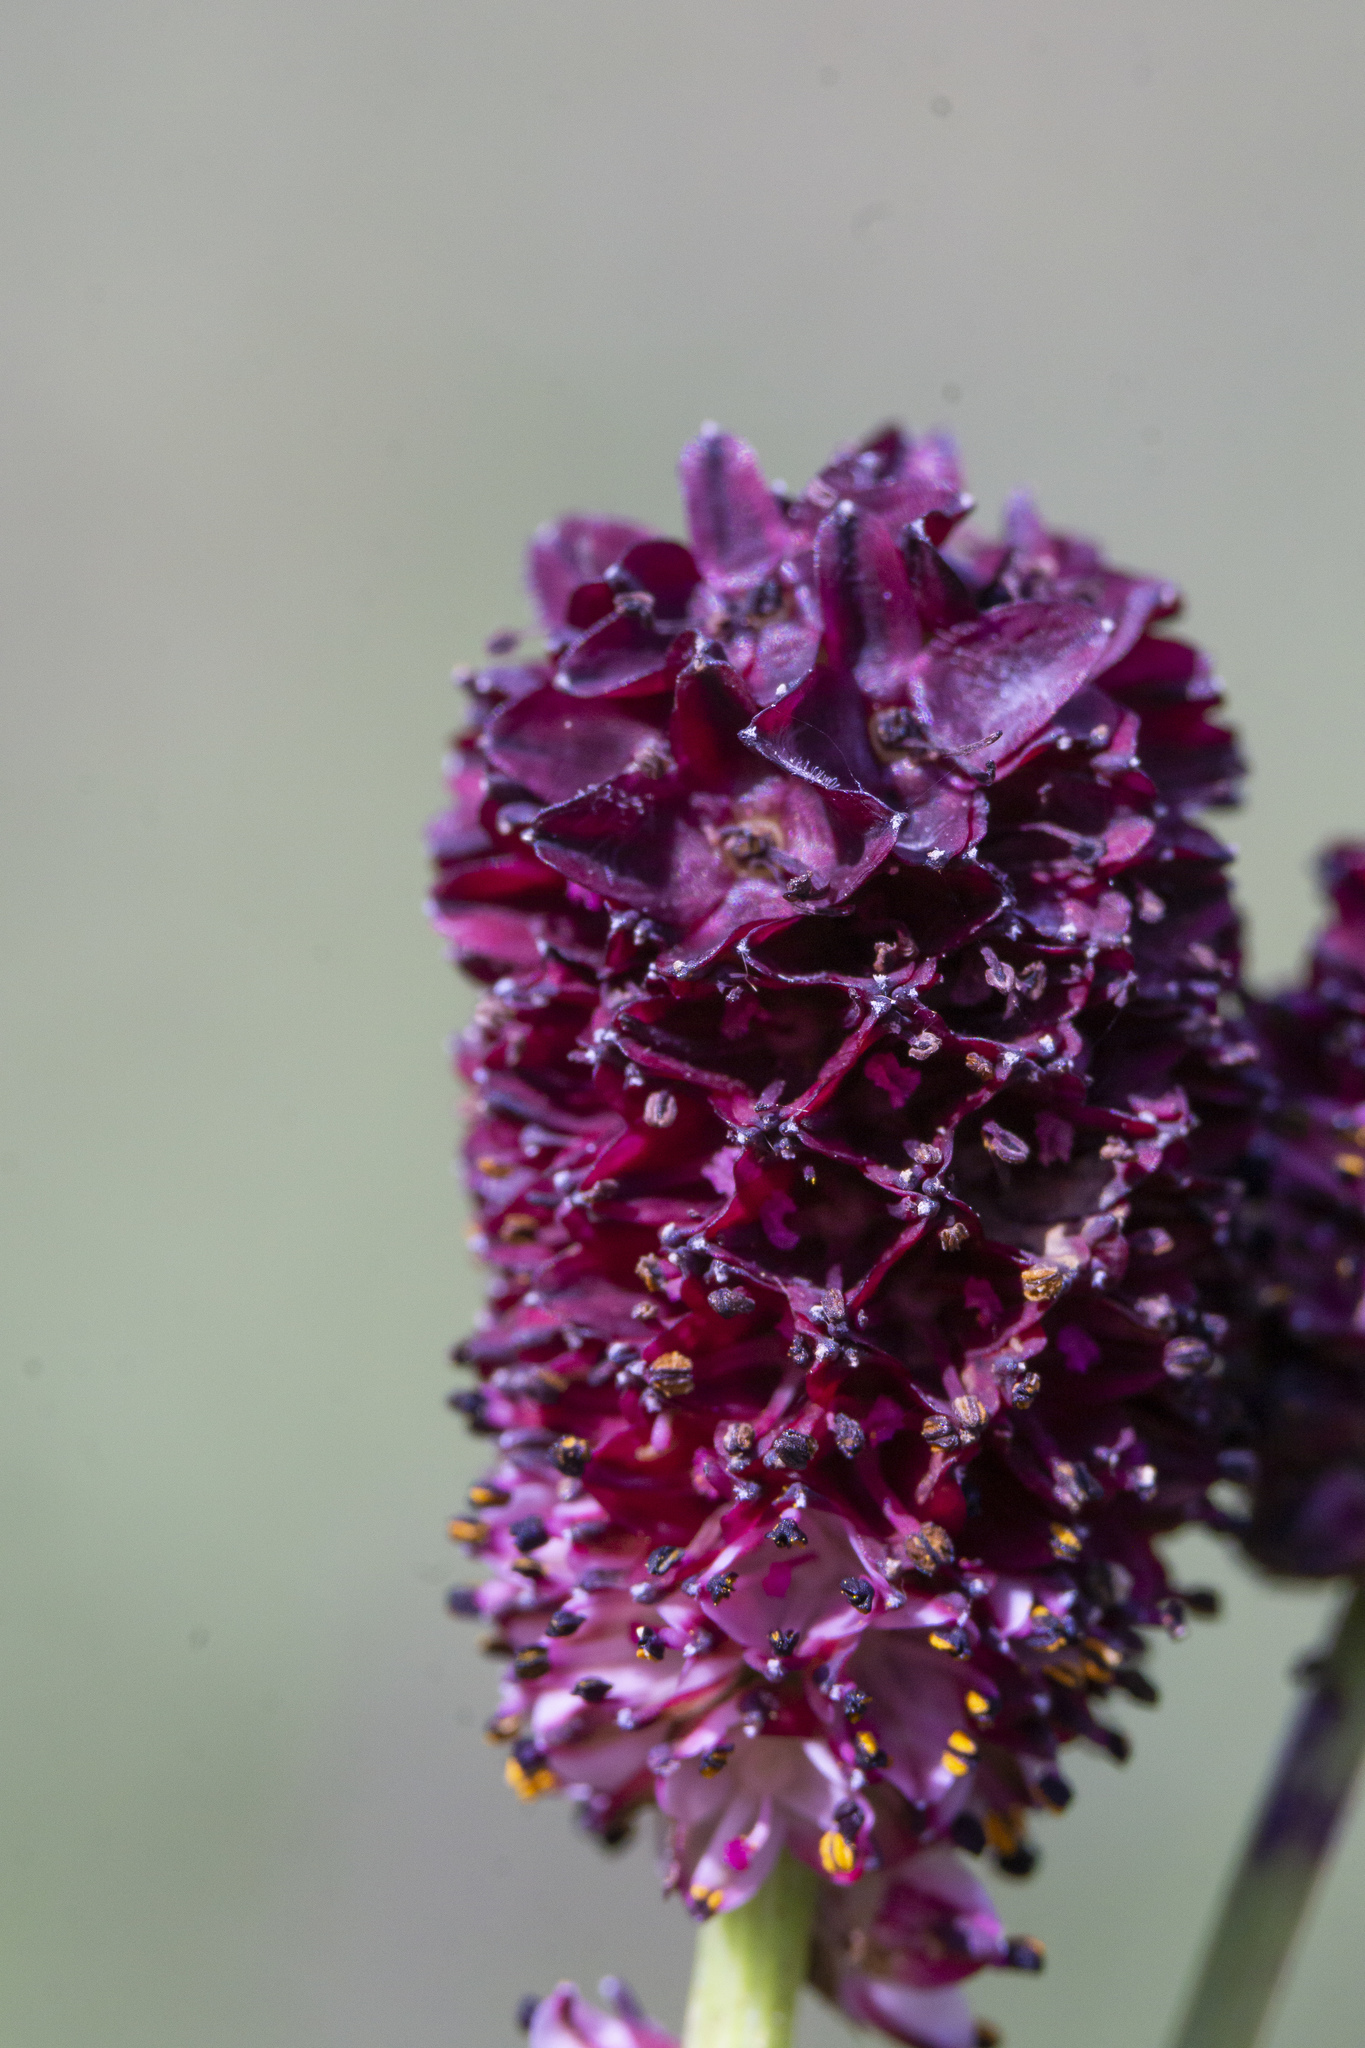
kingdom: Plantae
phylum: Tracheophyta
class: Magnoliopsida
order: Rosales
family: Rosaceae
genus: Sanguisorba
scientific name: Sanguisorba officinalis
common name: Great burnet
